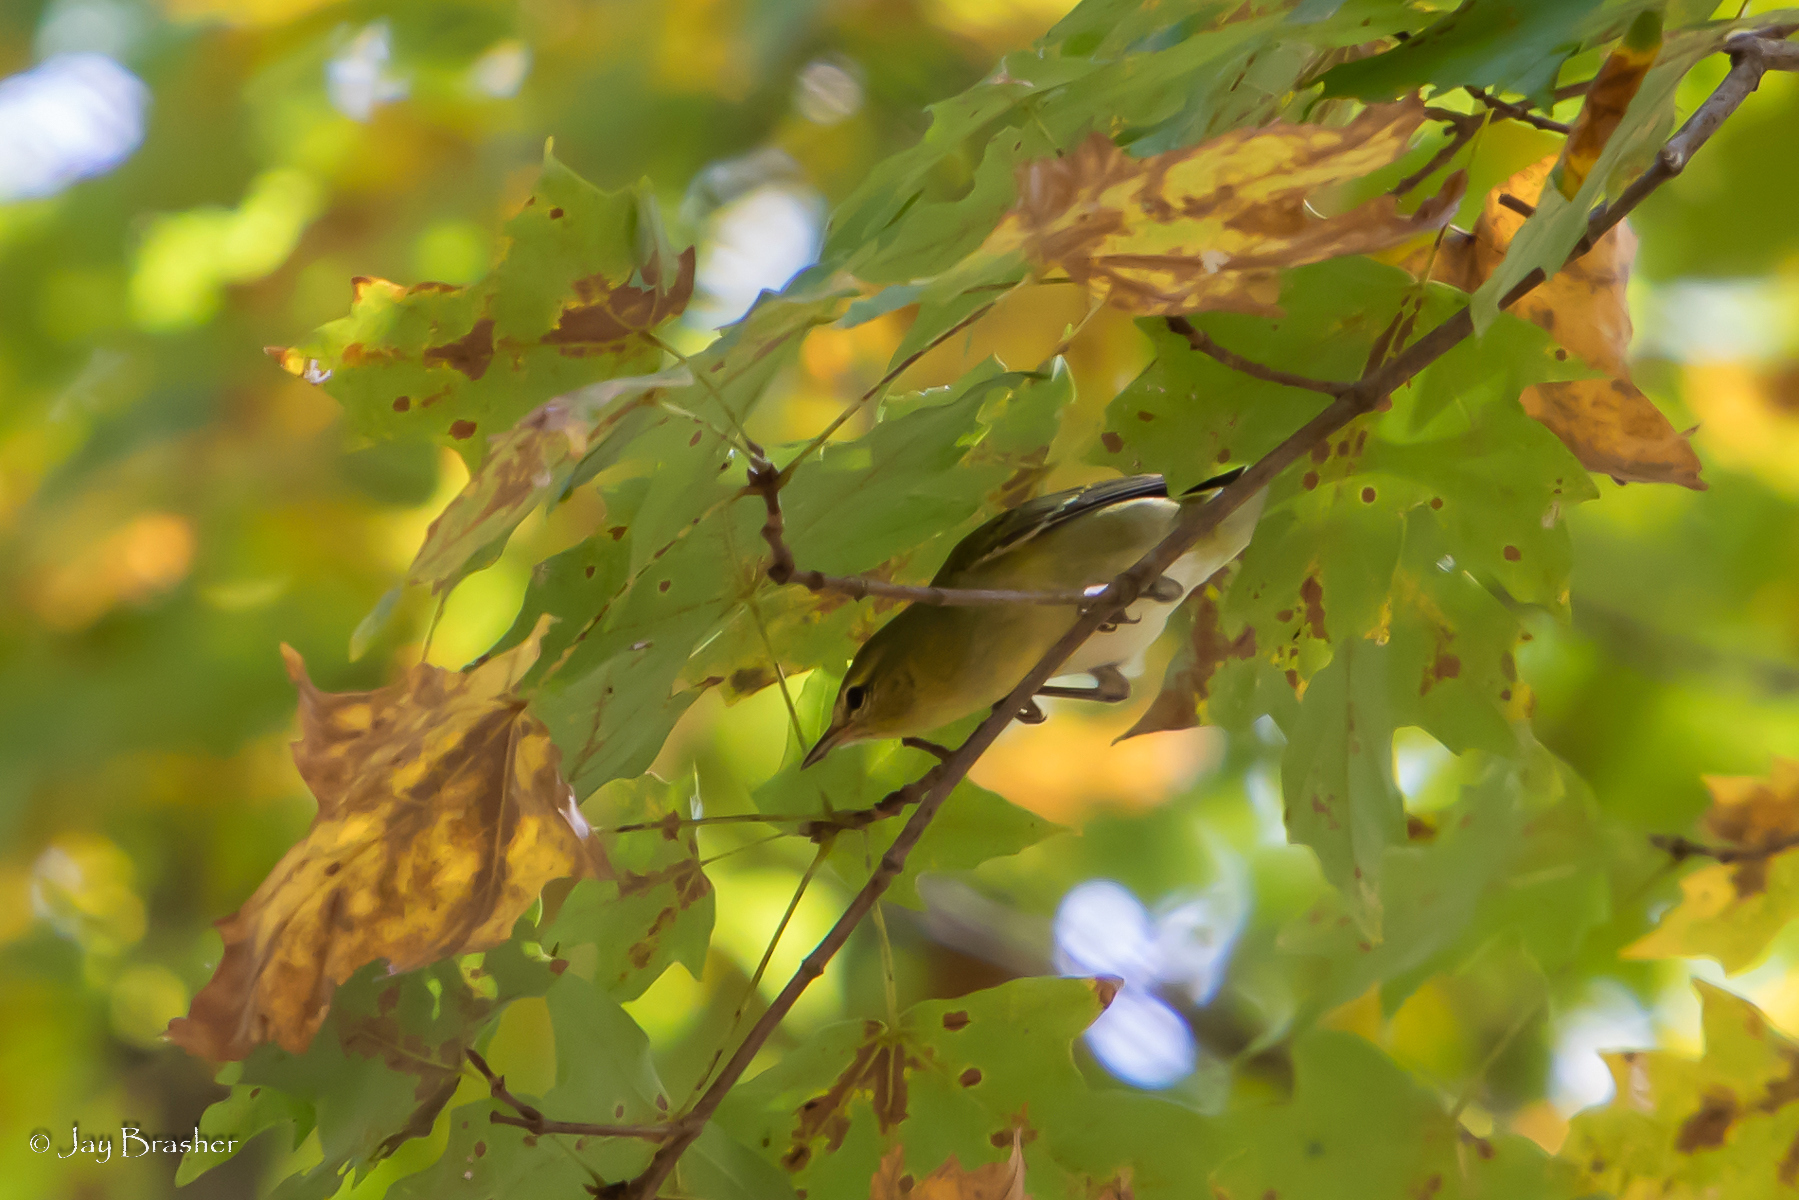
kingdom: Animalia
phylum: Chordata
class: Aves
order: Passeriformes
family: Parulidae
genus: Leiothlypis
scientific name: Leiothlypis peregrina
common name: Tennessee warbler
